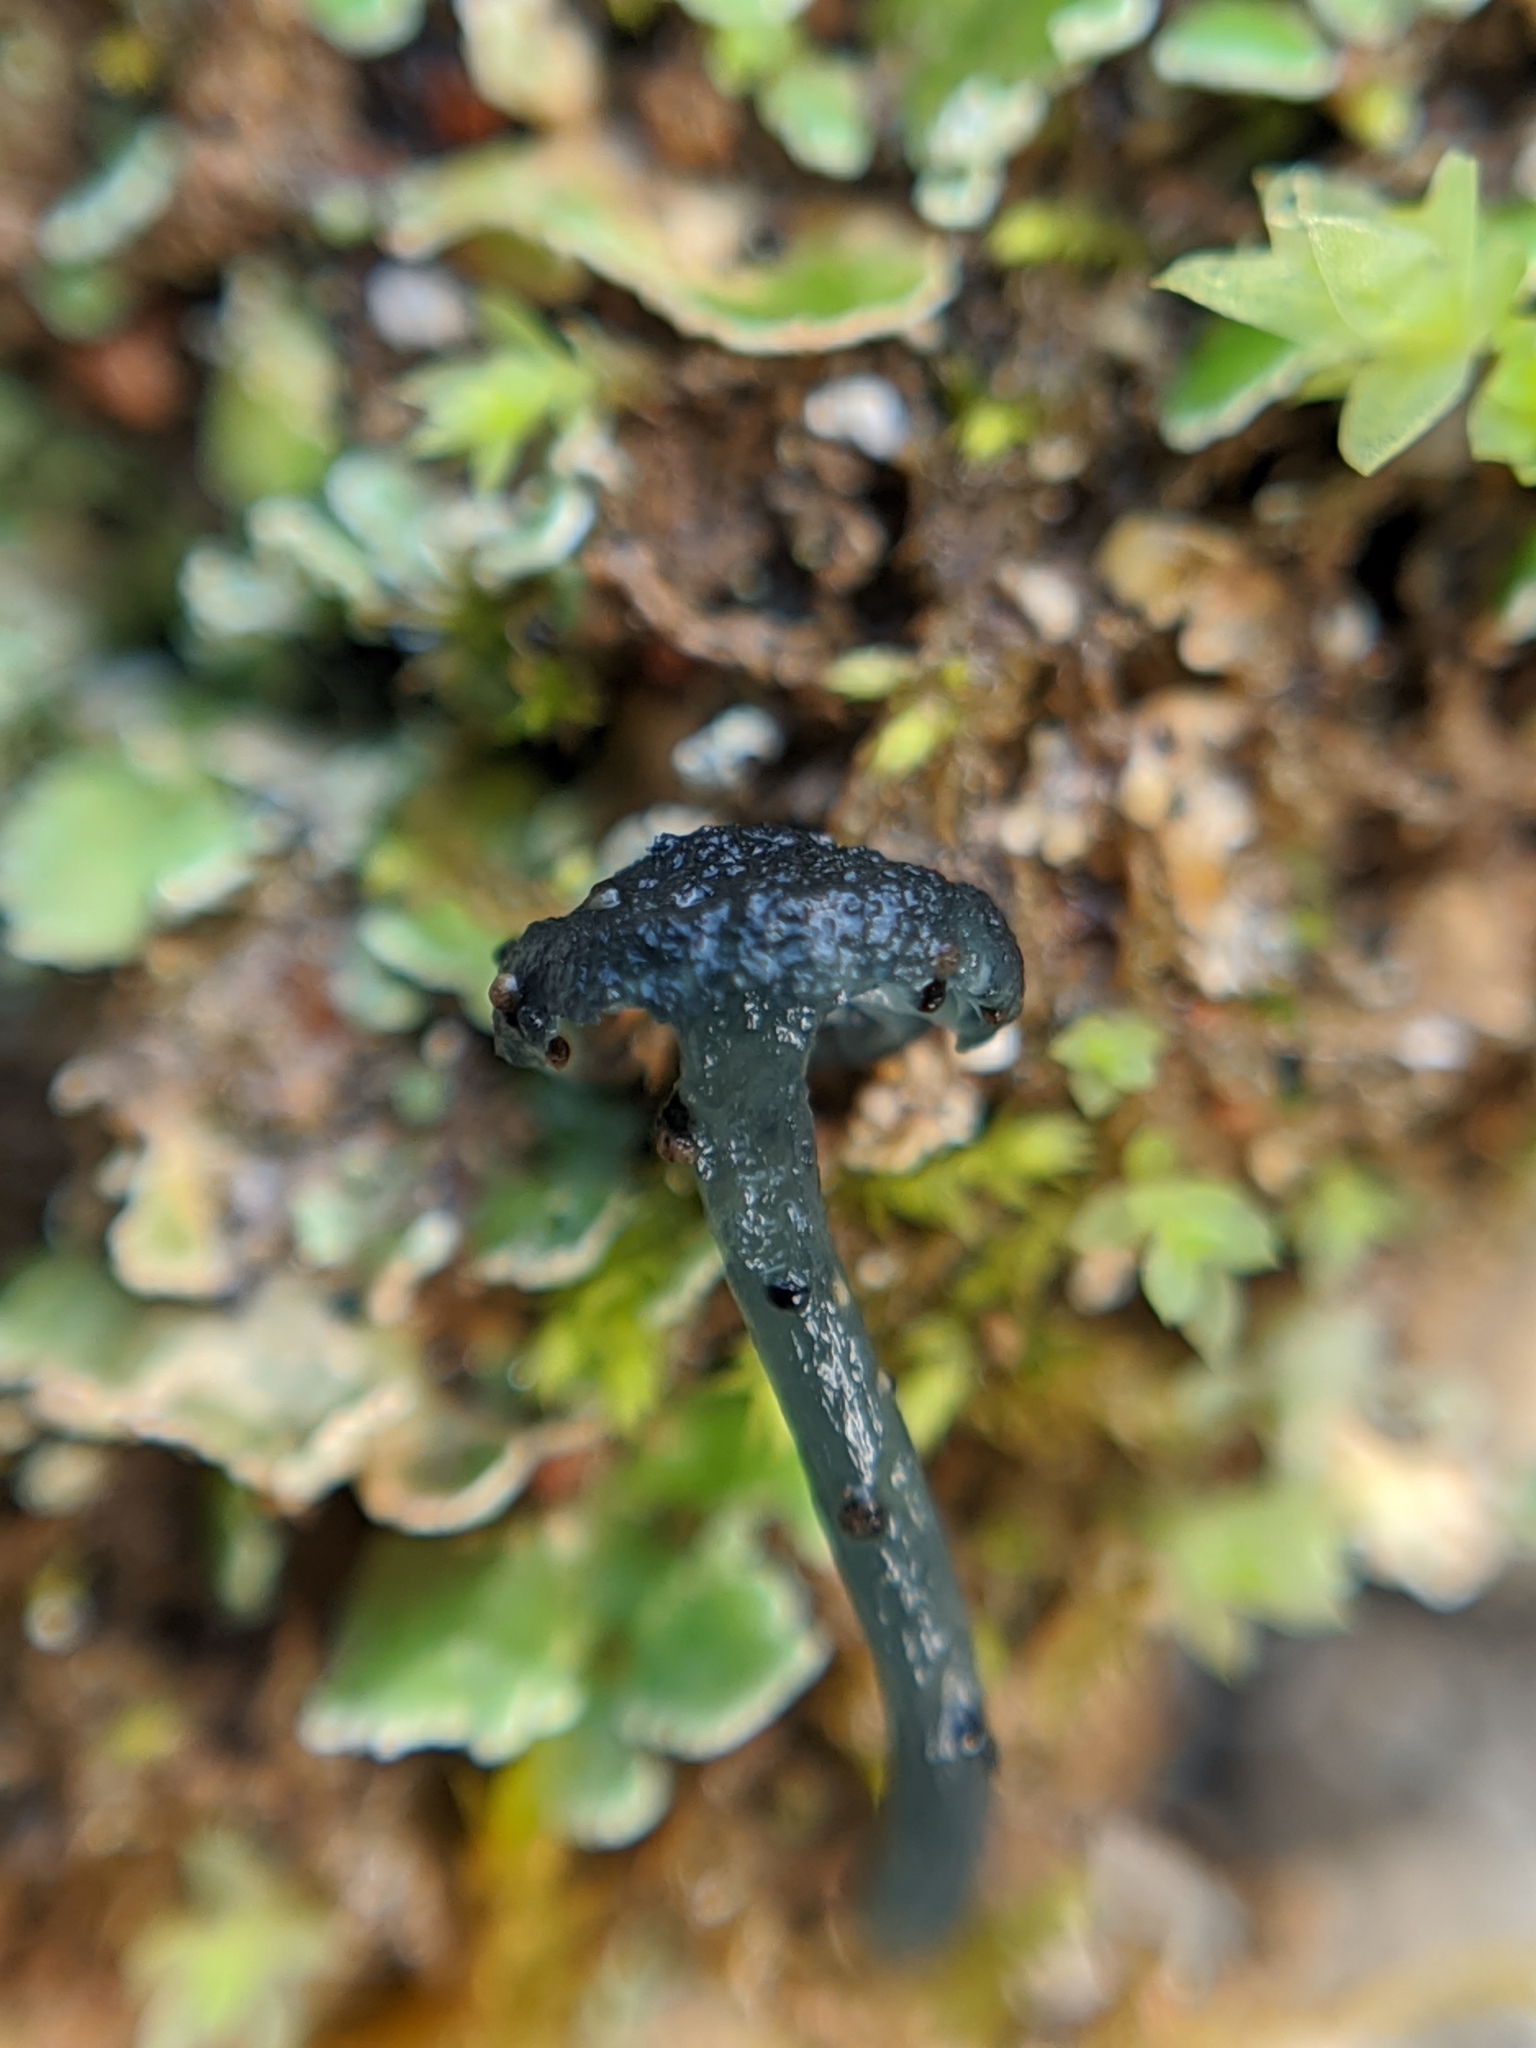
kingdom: Fungi
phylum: Basidiomycota
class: Agaricomycetes
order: Agaricales
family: Hygrophoraceae
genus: Arrhenia
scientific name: Arrhenia chlorocyanea
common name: Verdigris navel
